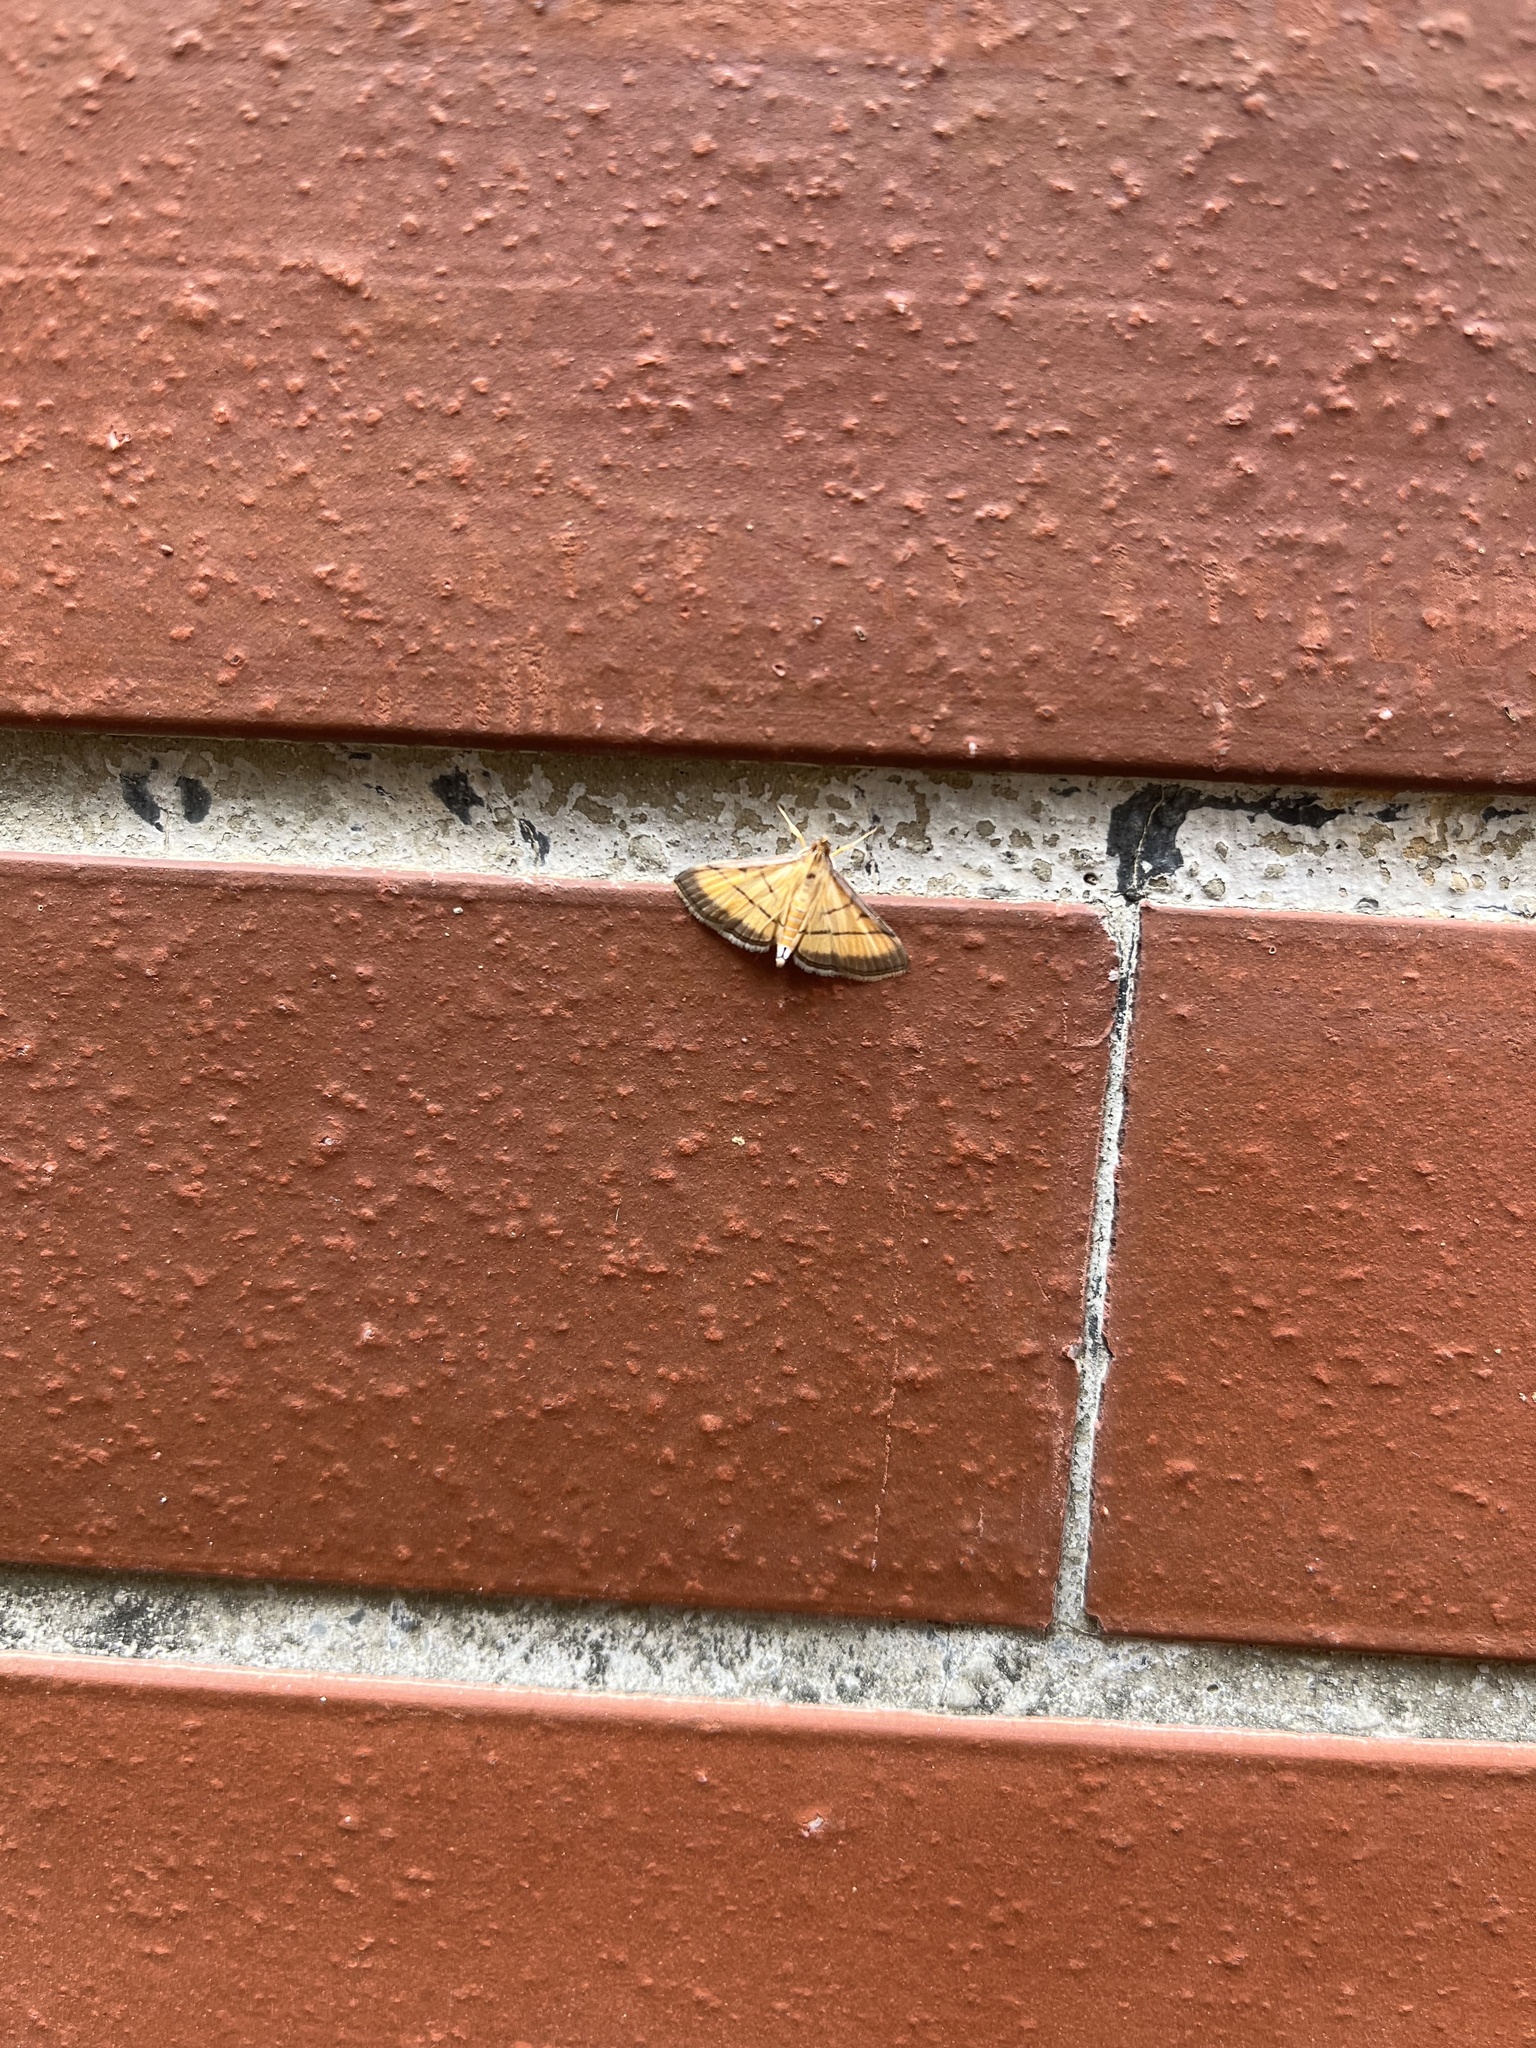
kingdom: Animalia
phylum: Arthropoda
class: Insecta
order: Lepidoptera
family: Crambidae
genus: Cnaphalocrocis
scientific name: Cnaphalocrocis medinalis
